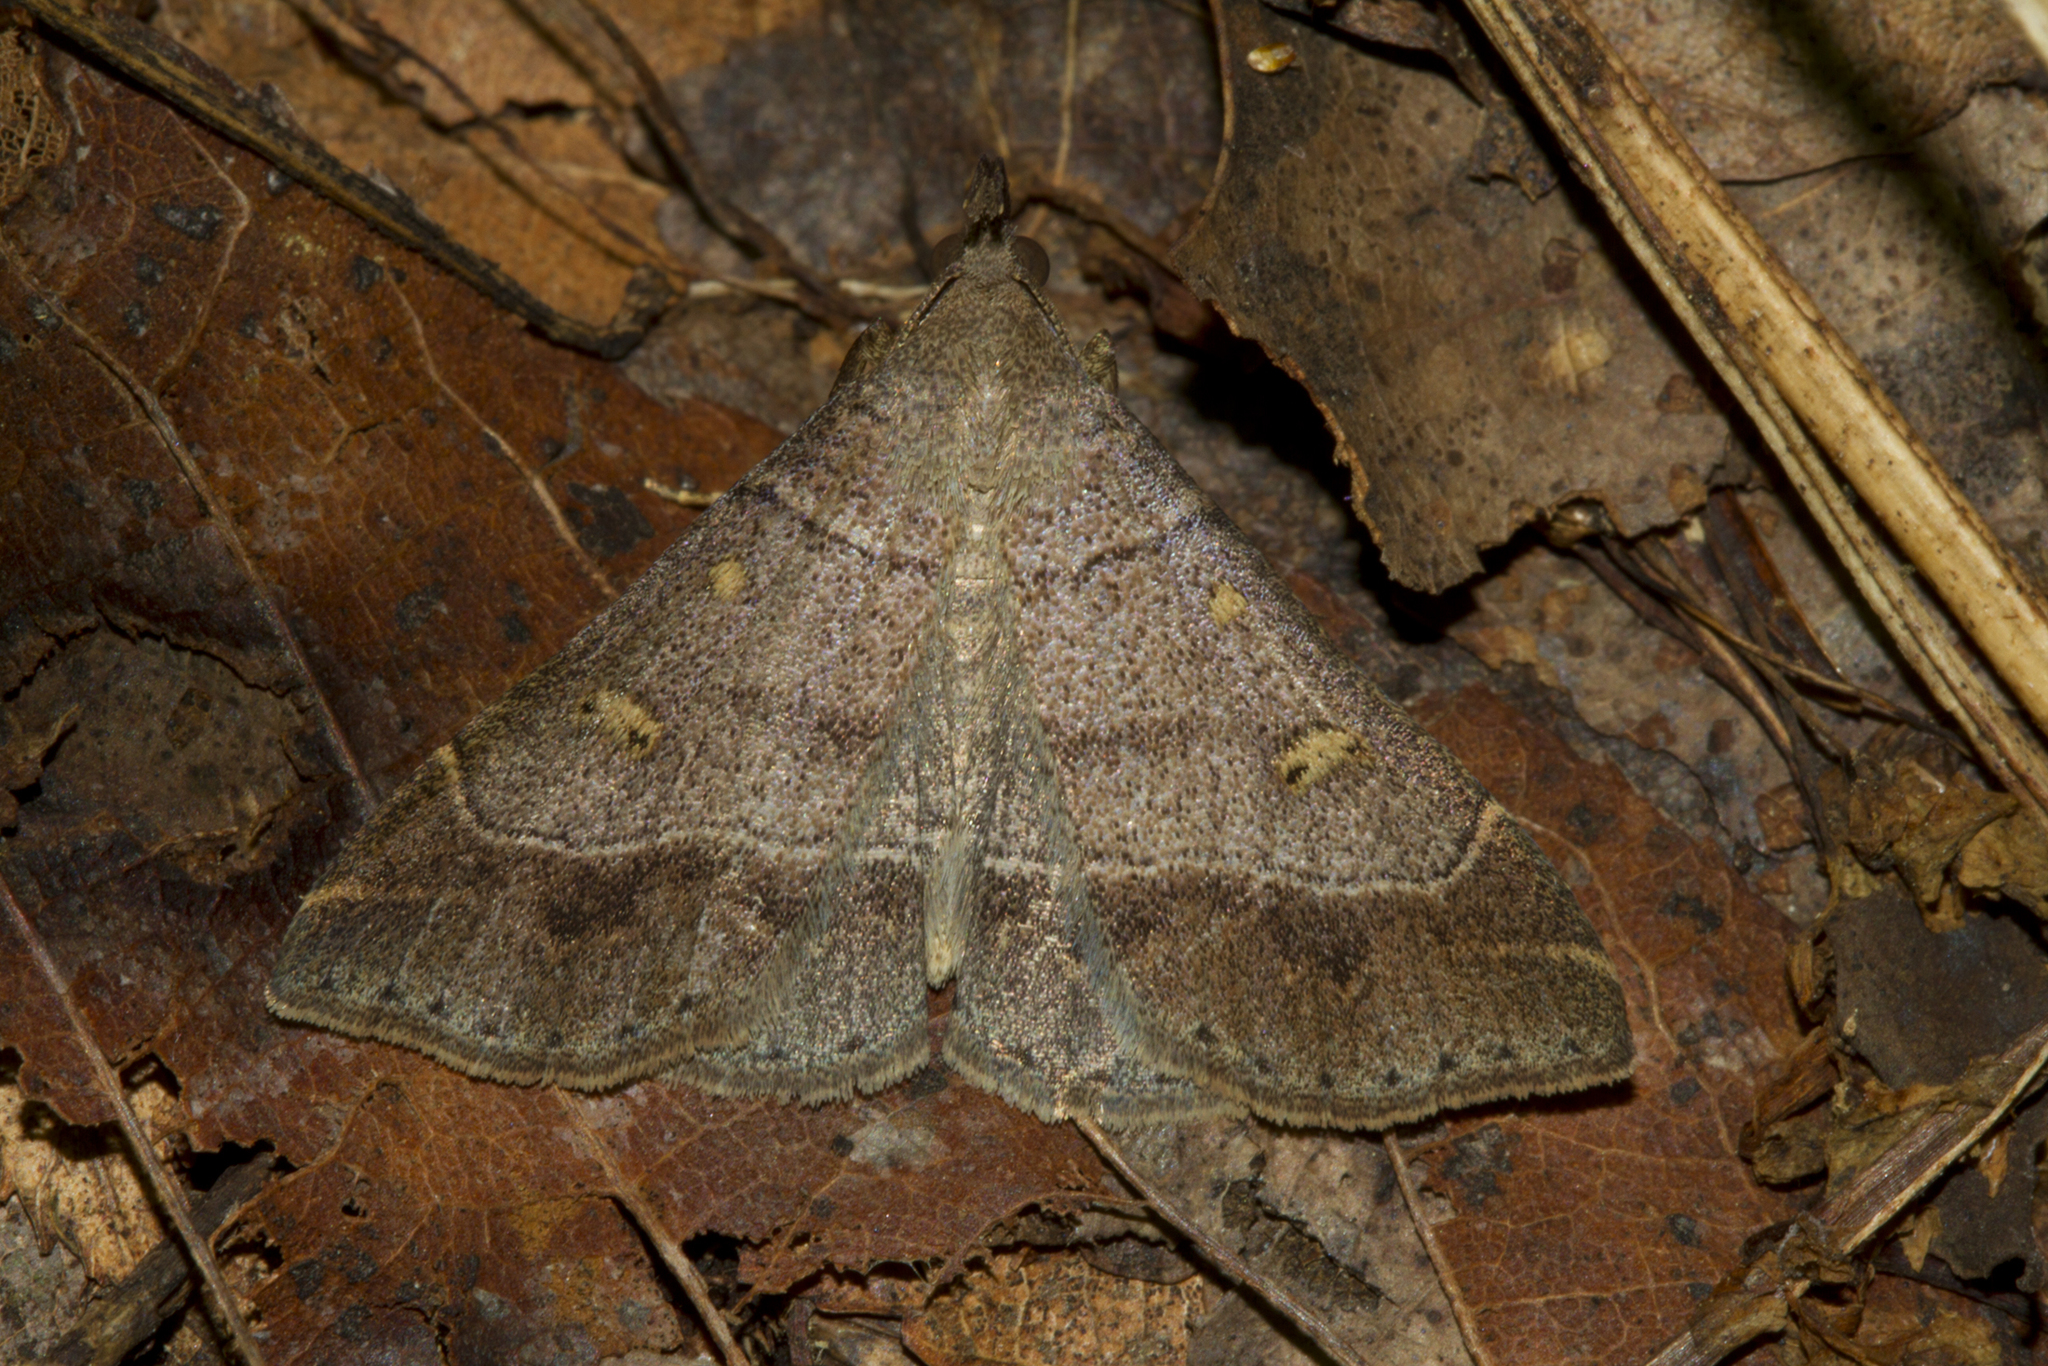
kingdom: Animalia
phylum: Arthropoda
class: Insecta
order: Lepidoptera
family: Erebidae
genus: Renia
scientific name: Renia flavipunctalis
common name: Yellow-spotted renia moth
